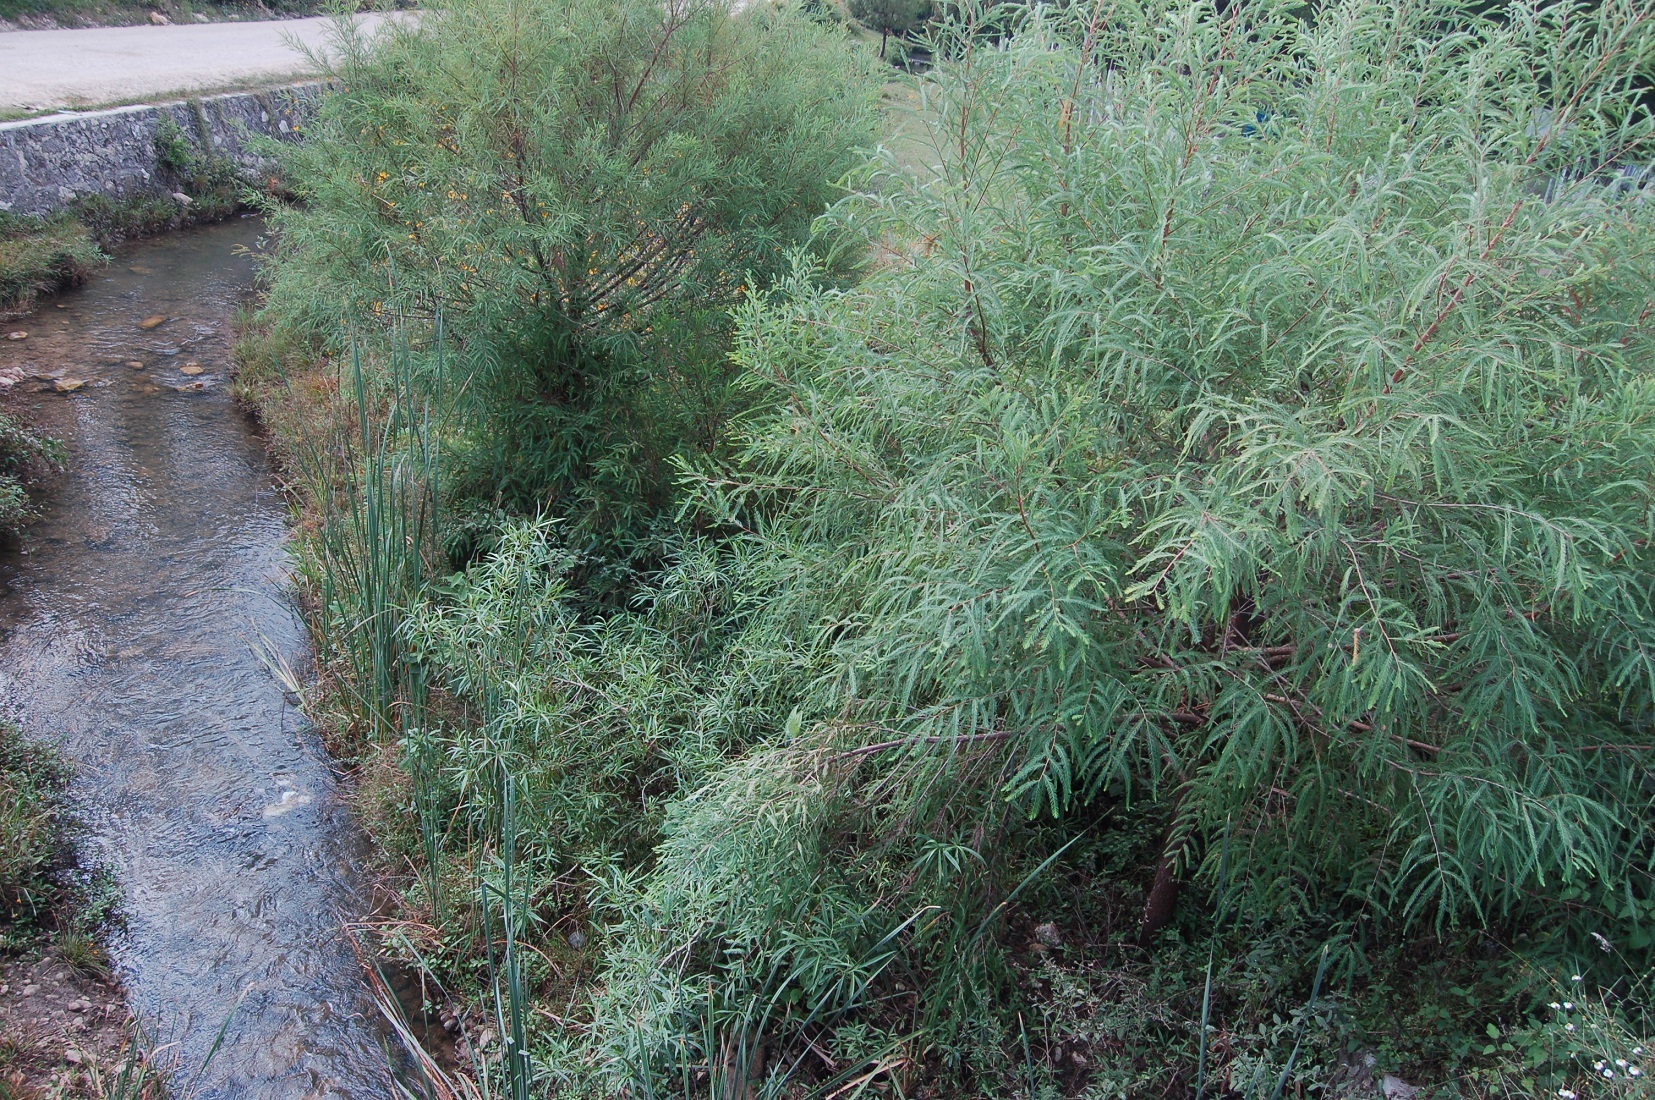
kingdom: Plantae
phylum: Tracheophyta
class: Pinopsida
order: Pinales
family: Cupressaceae
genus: Taxodium
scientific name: Taxodium mucronatum
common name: Montezume bald cypress
